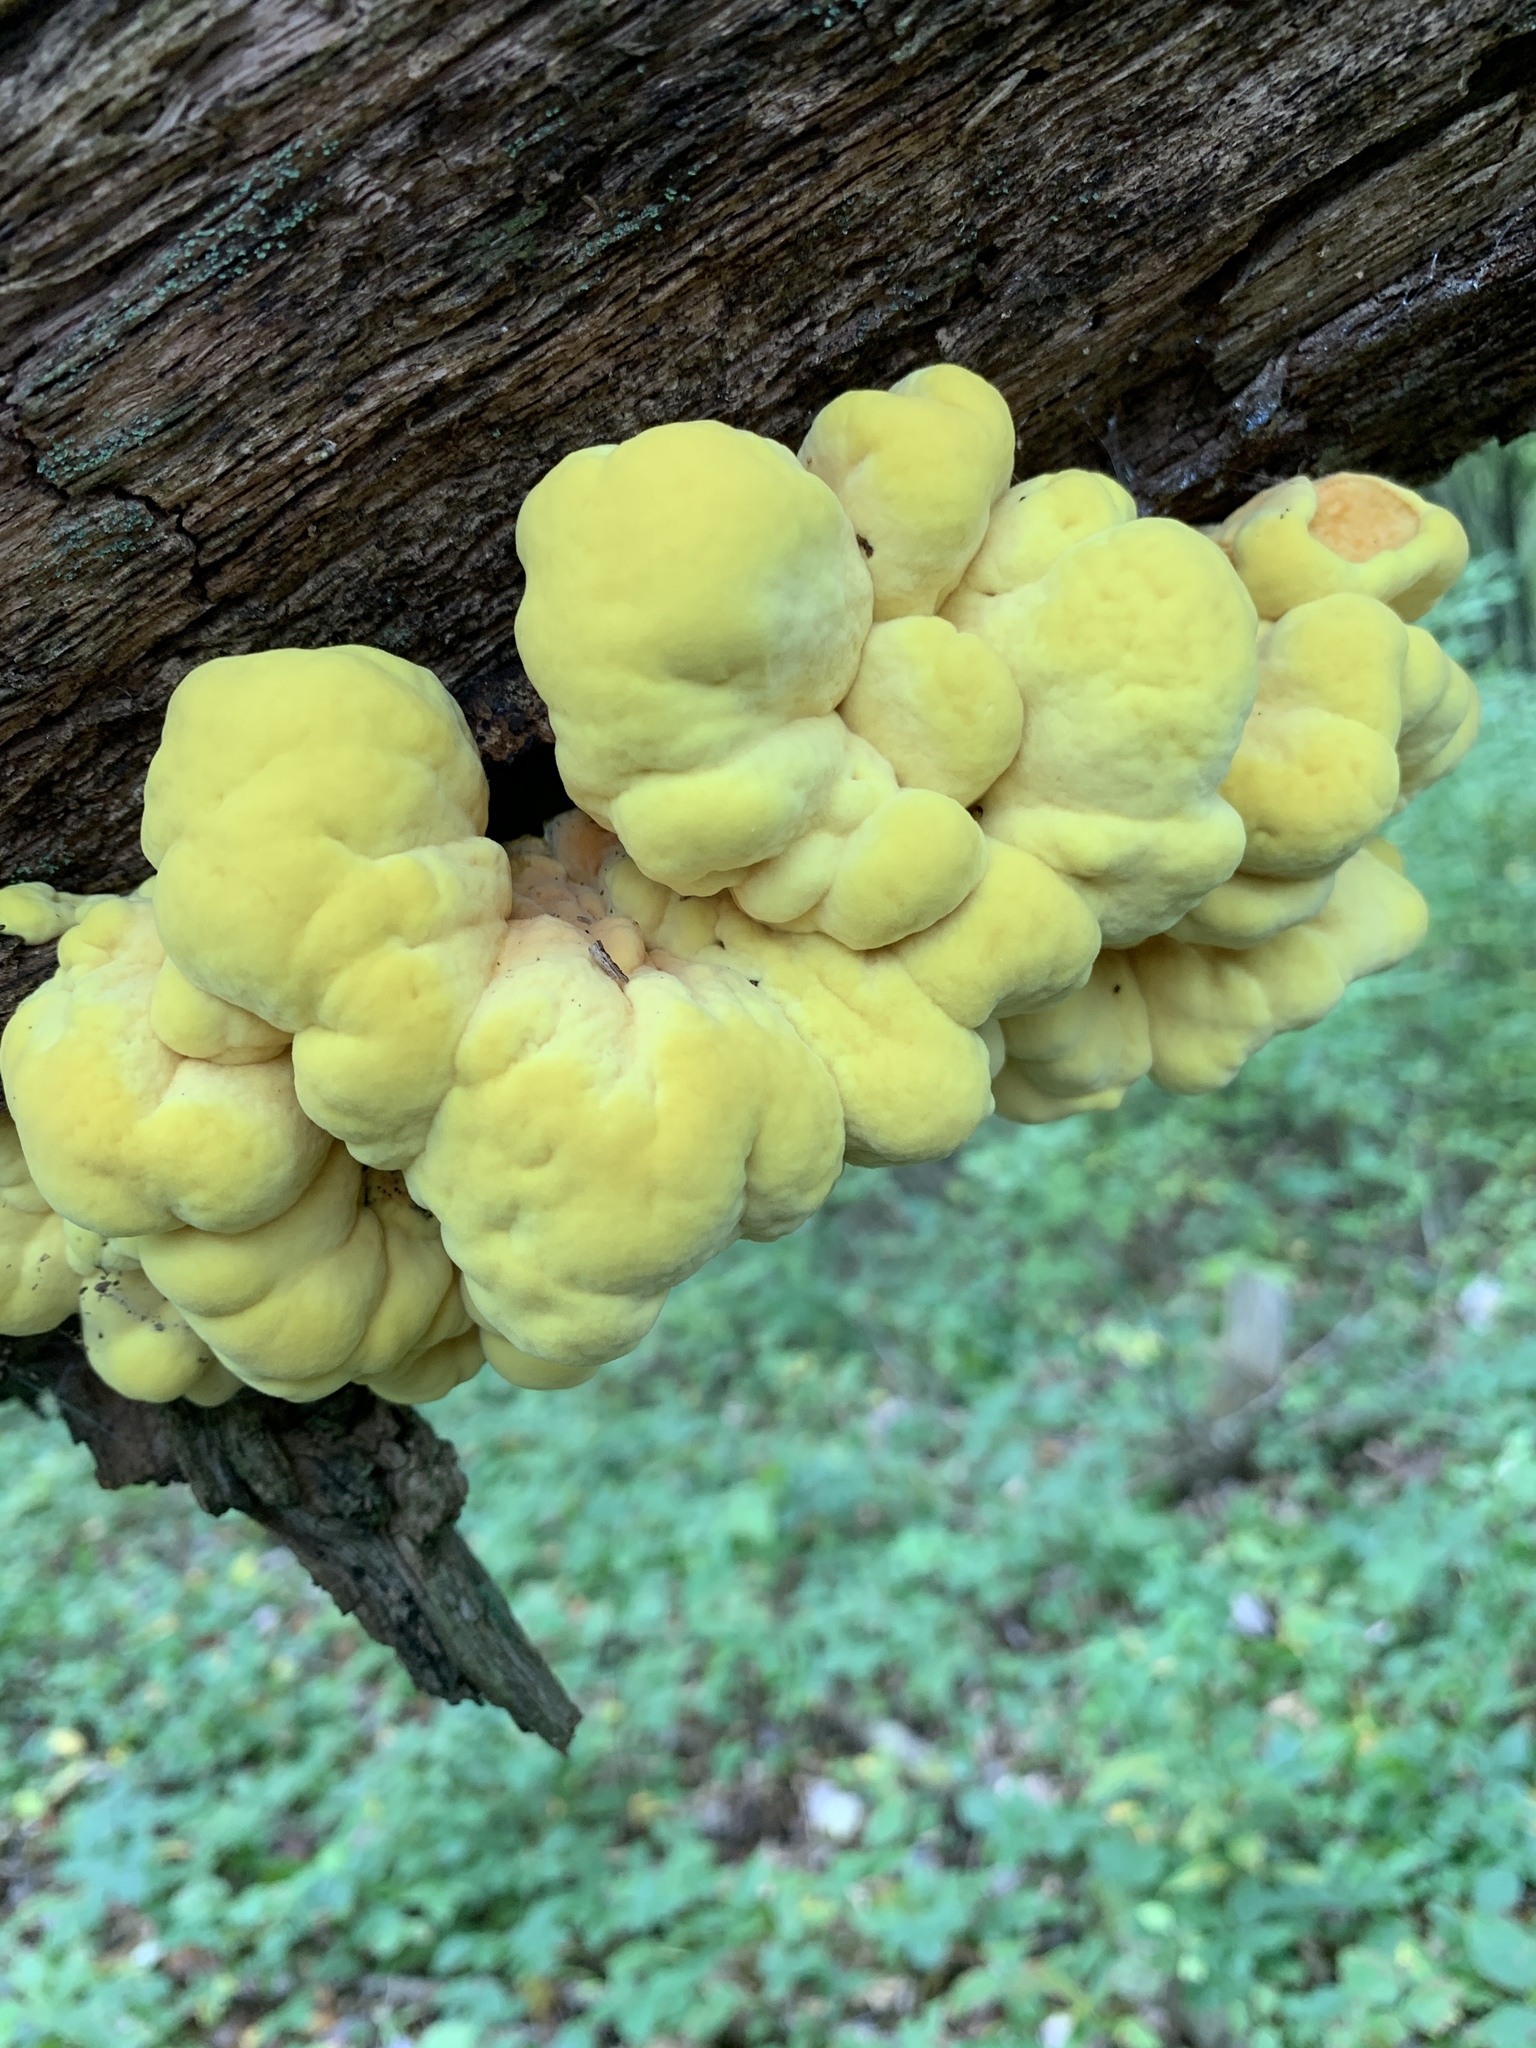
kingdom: Fungi
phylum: Basidiomycota
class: Agaricomycetes
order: Polyporales
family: Laetiporaceae
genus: Laetiporus
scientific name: Laetiporus sulphureus
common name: Chicken of the woods
